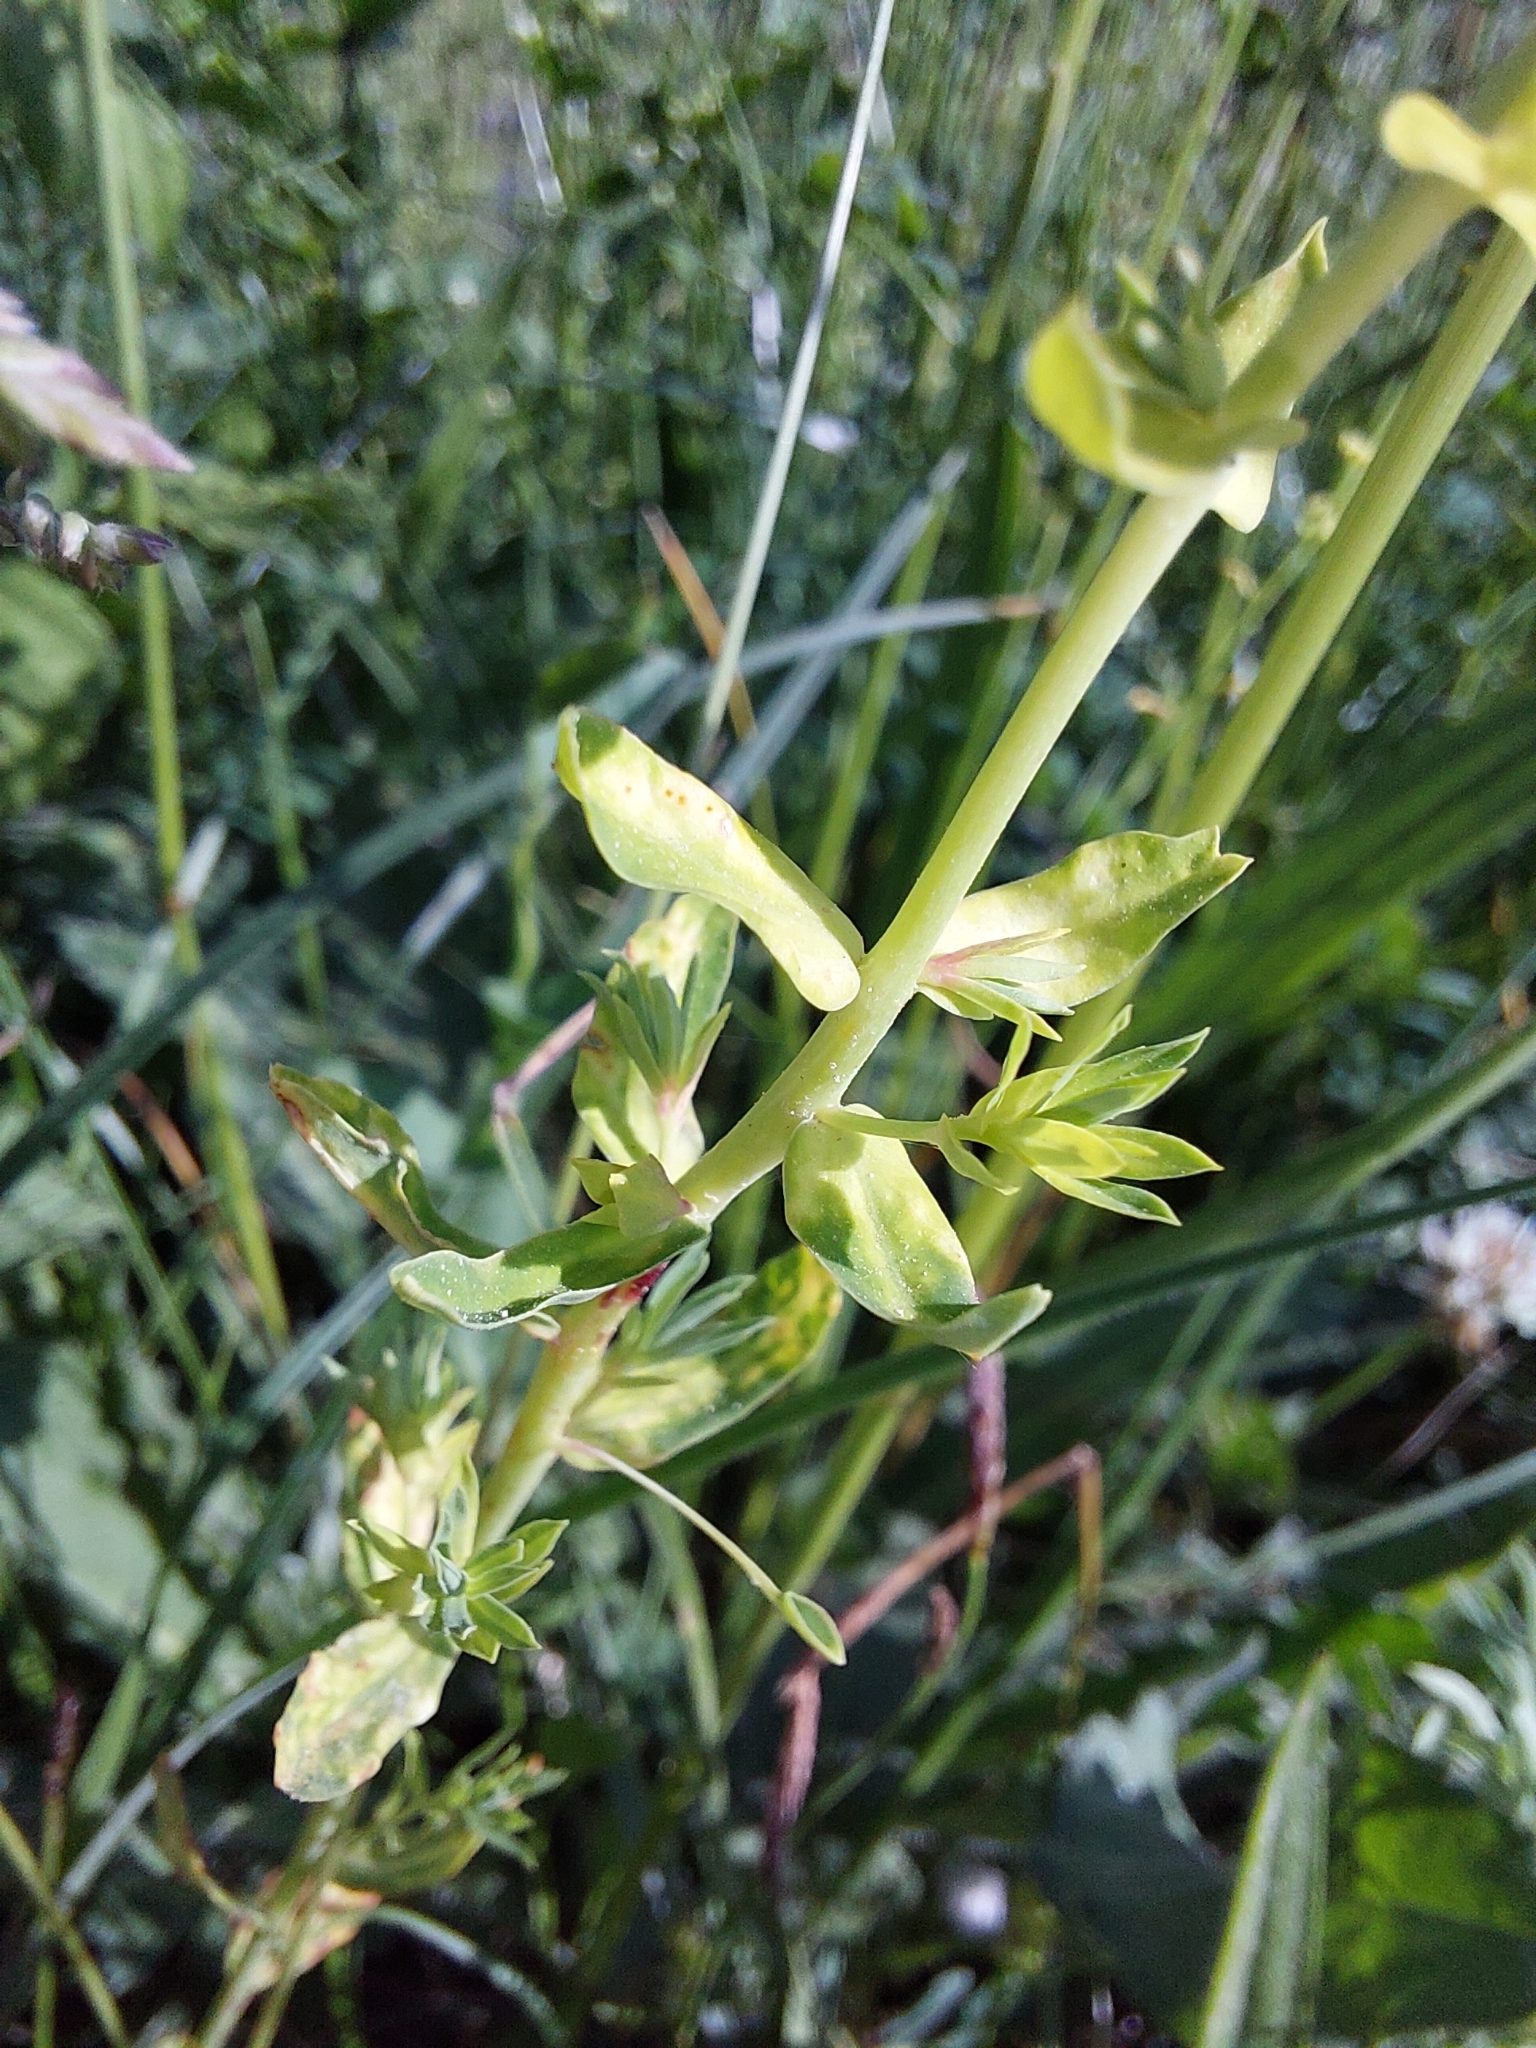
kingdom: Plantae
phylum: Tracheophyta
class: Magnoliopsida
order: Malpighiales
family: Euphorbiaceae
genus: Euphorbia
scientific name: Euphorbia cyparissias
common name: Cypress spurge
